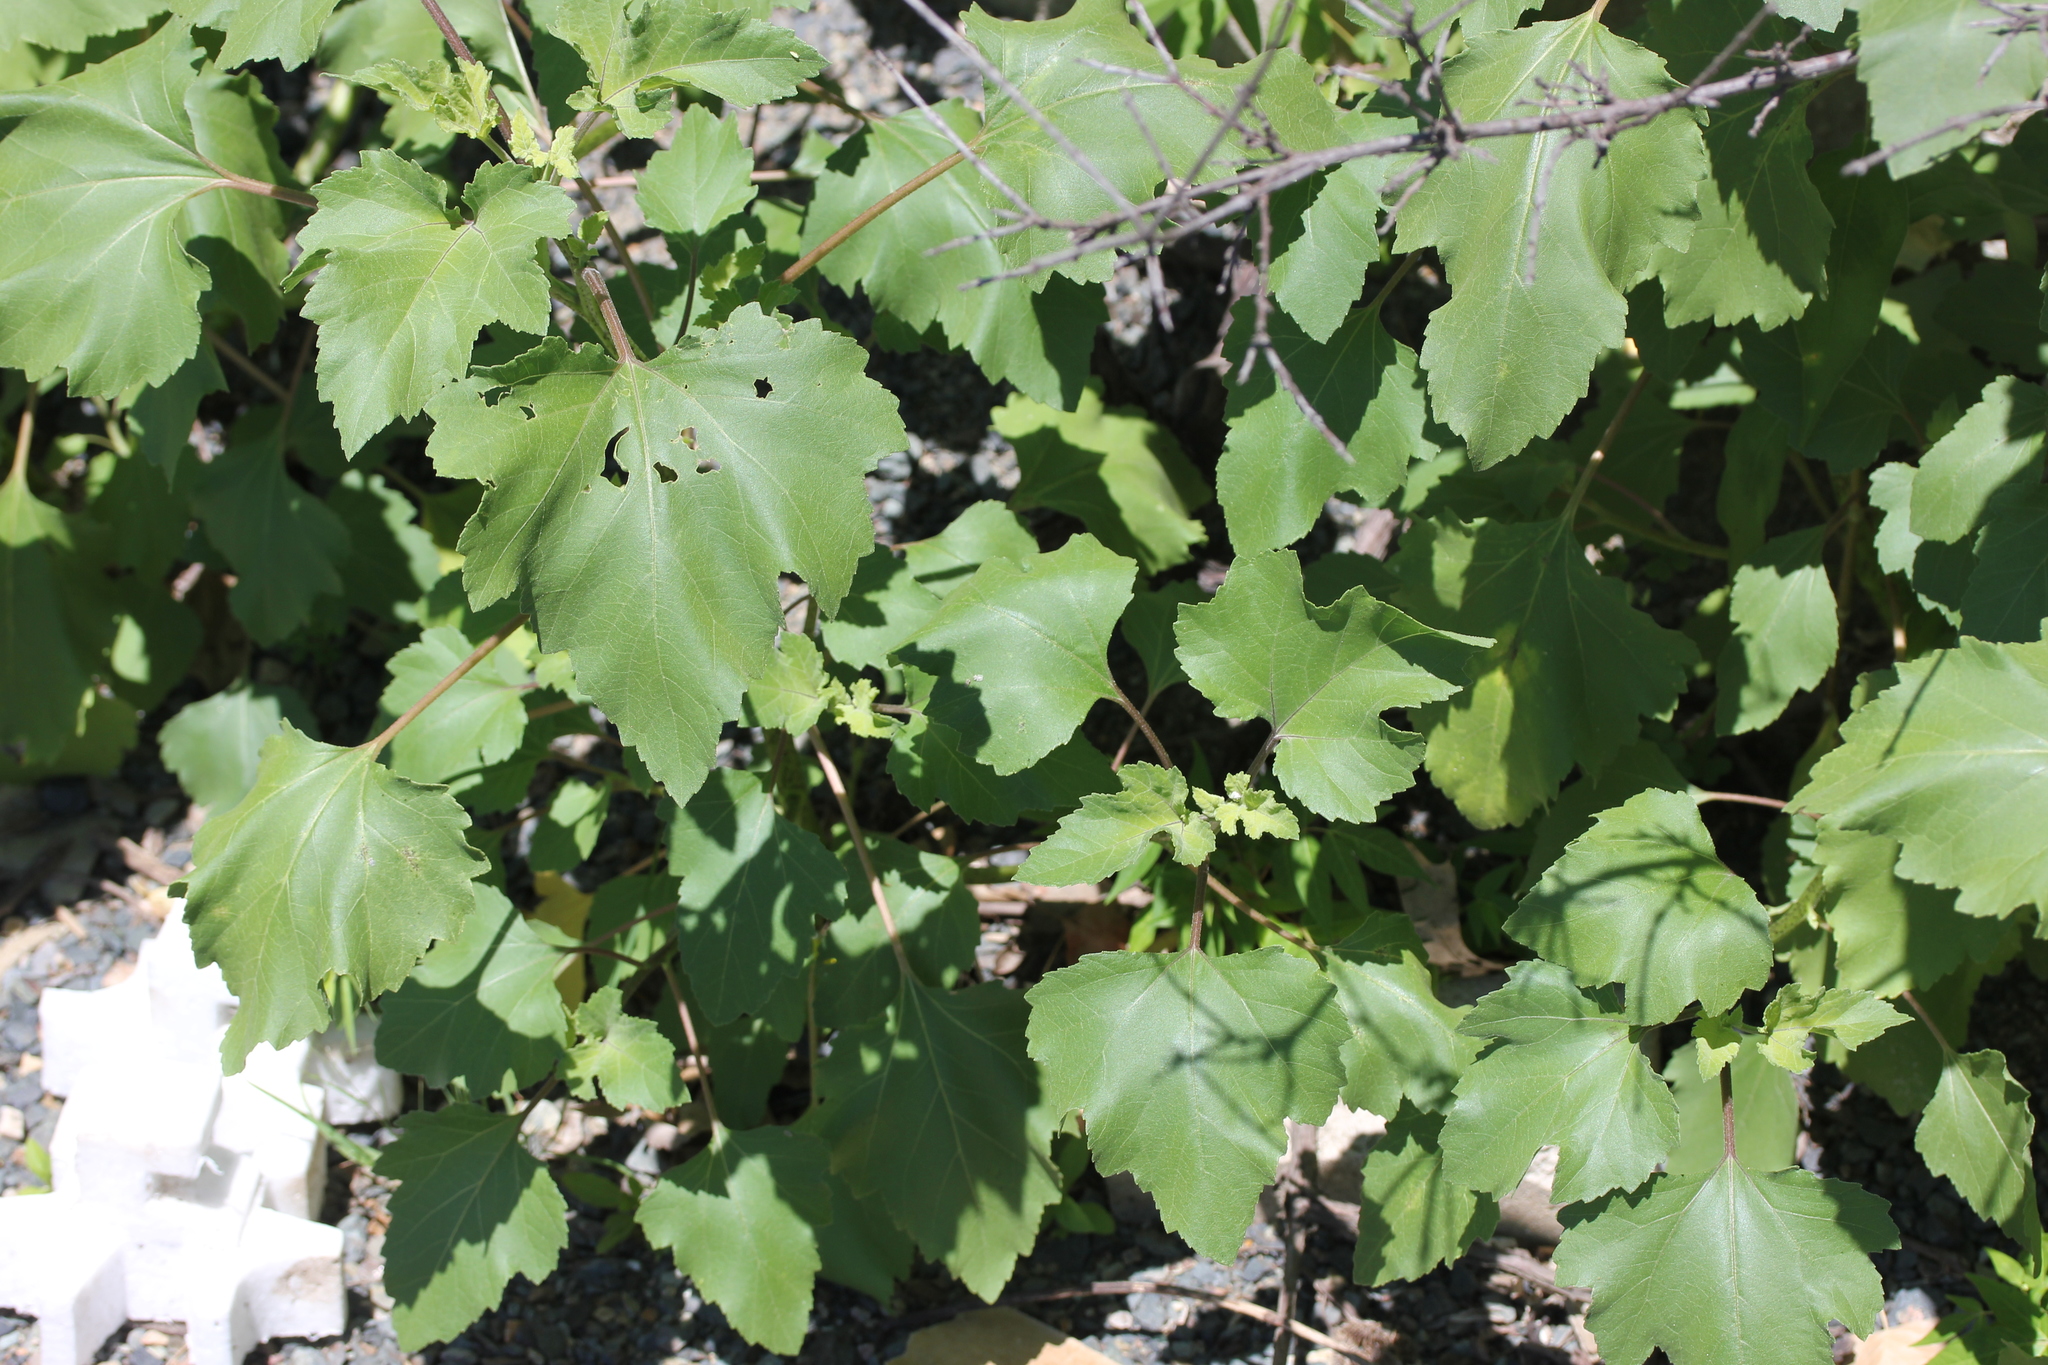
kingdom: Plantae
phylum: Tracheophyta
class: Magnoliopsida
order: Asterales
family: Asteraceae
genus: Xanthium
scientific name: Xanthium strumarium
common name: Rough cocklebur
